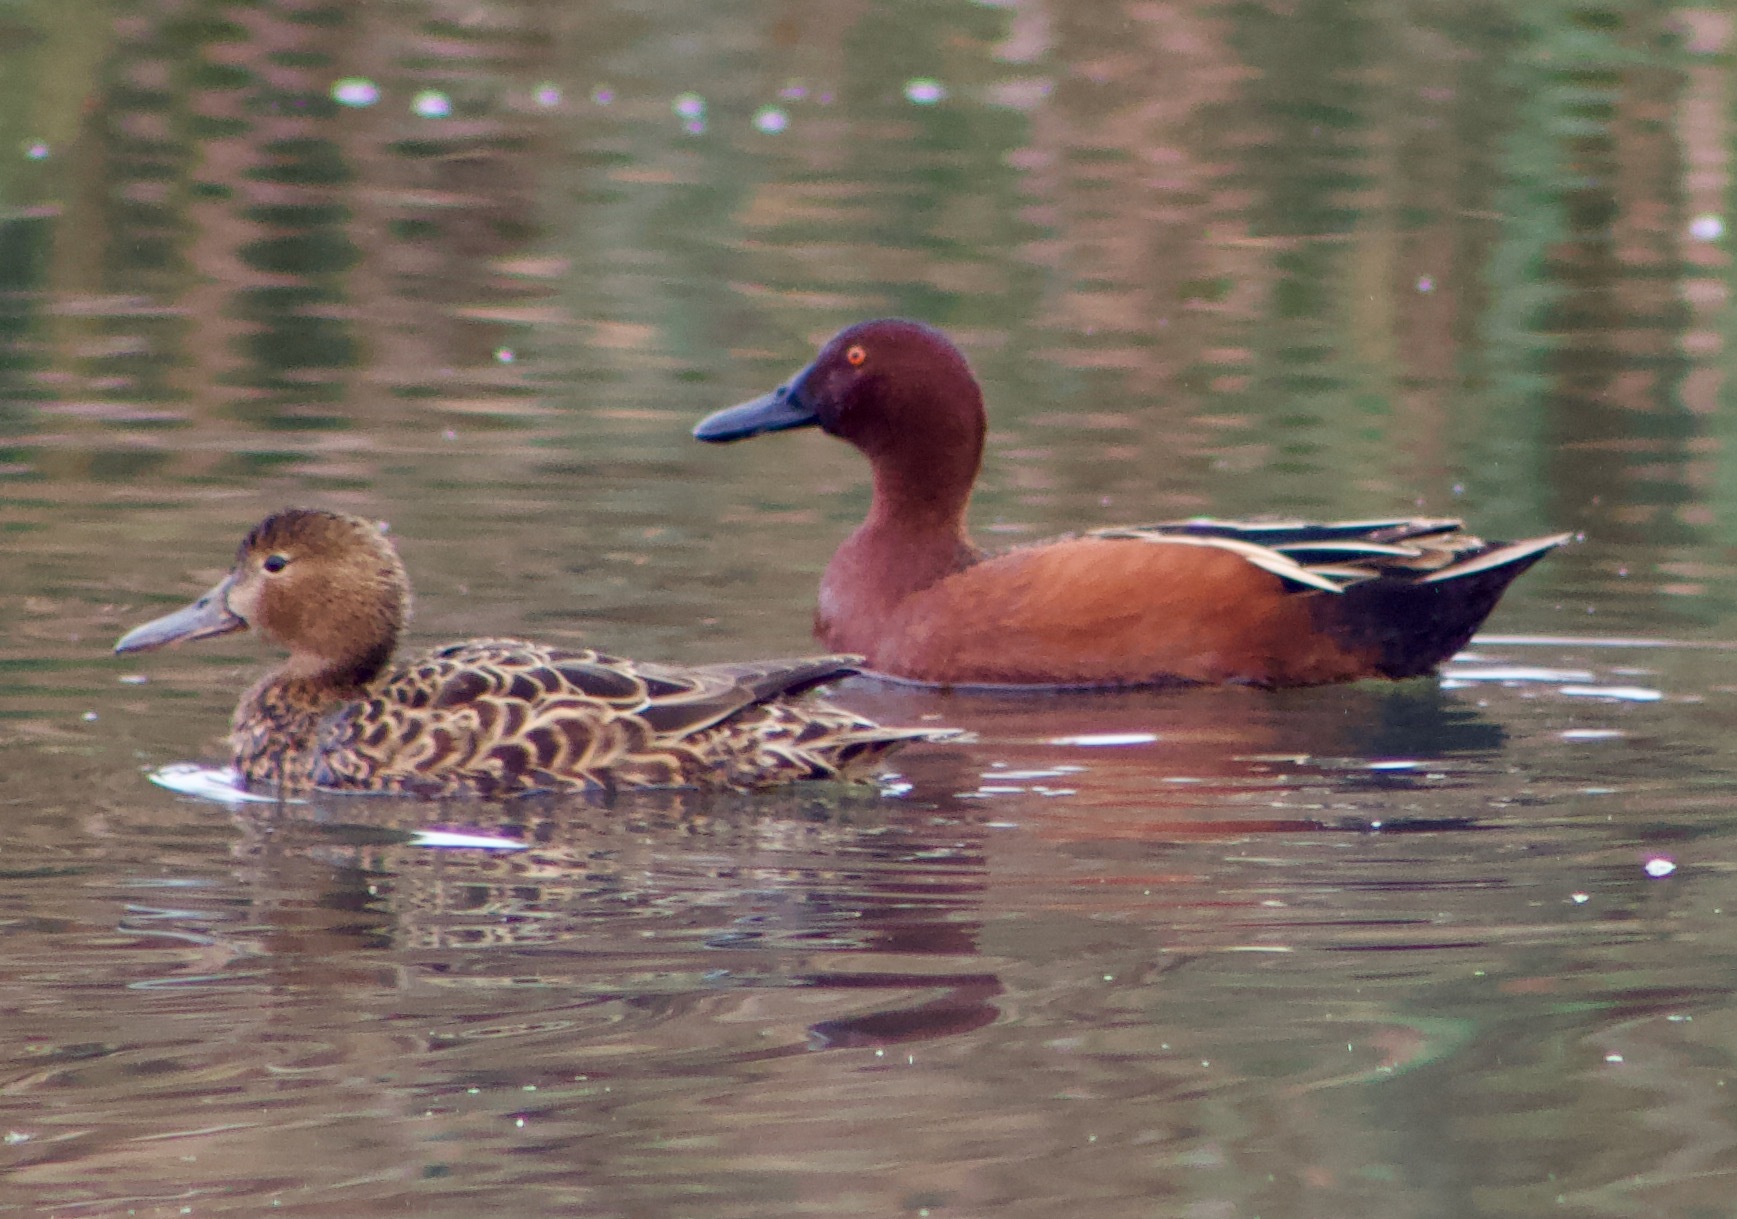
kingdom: Animalia
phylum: Chordata
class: Aves
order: Anseriformes
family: Anatidae
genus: Spatula
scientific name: Spatula cyanoptera
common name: Cinnamon teal
